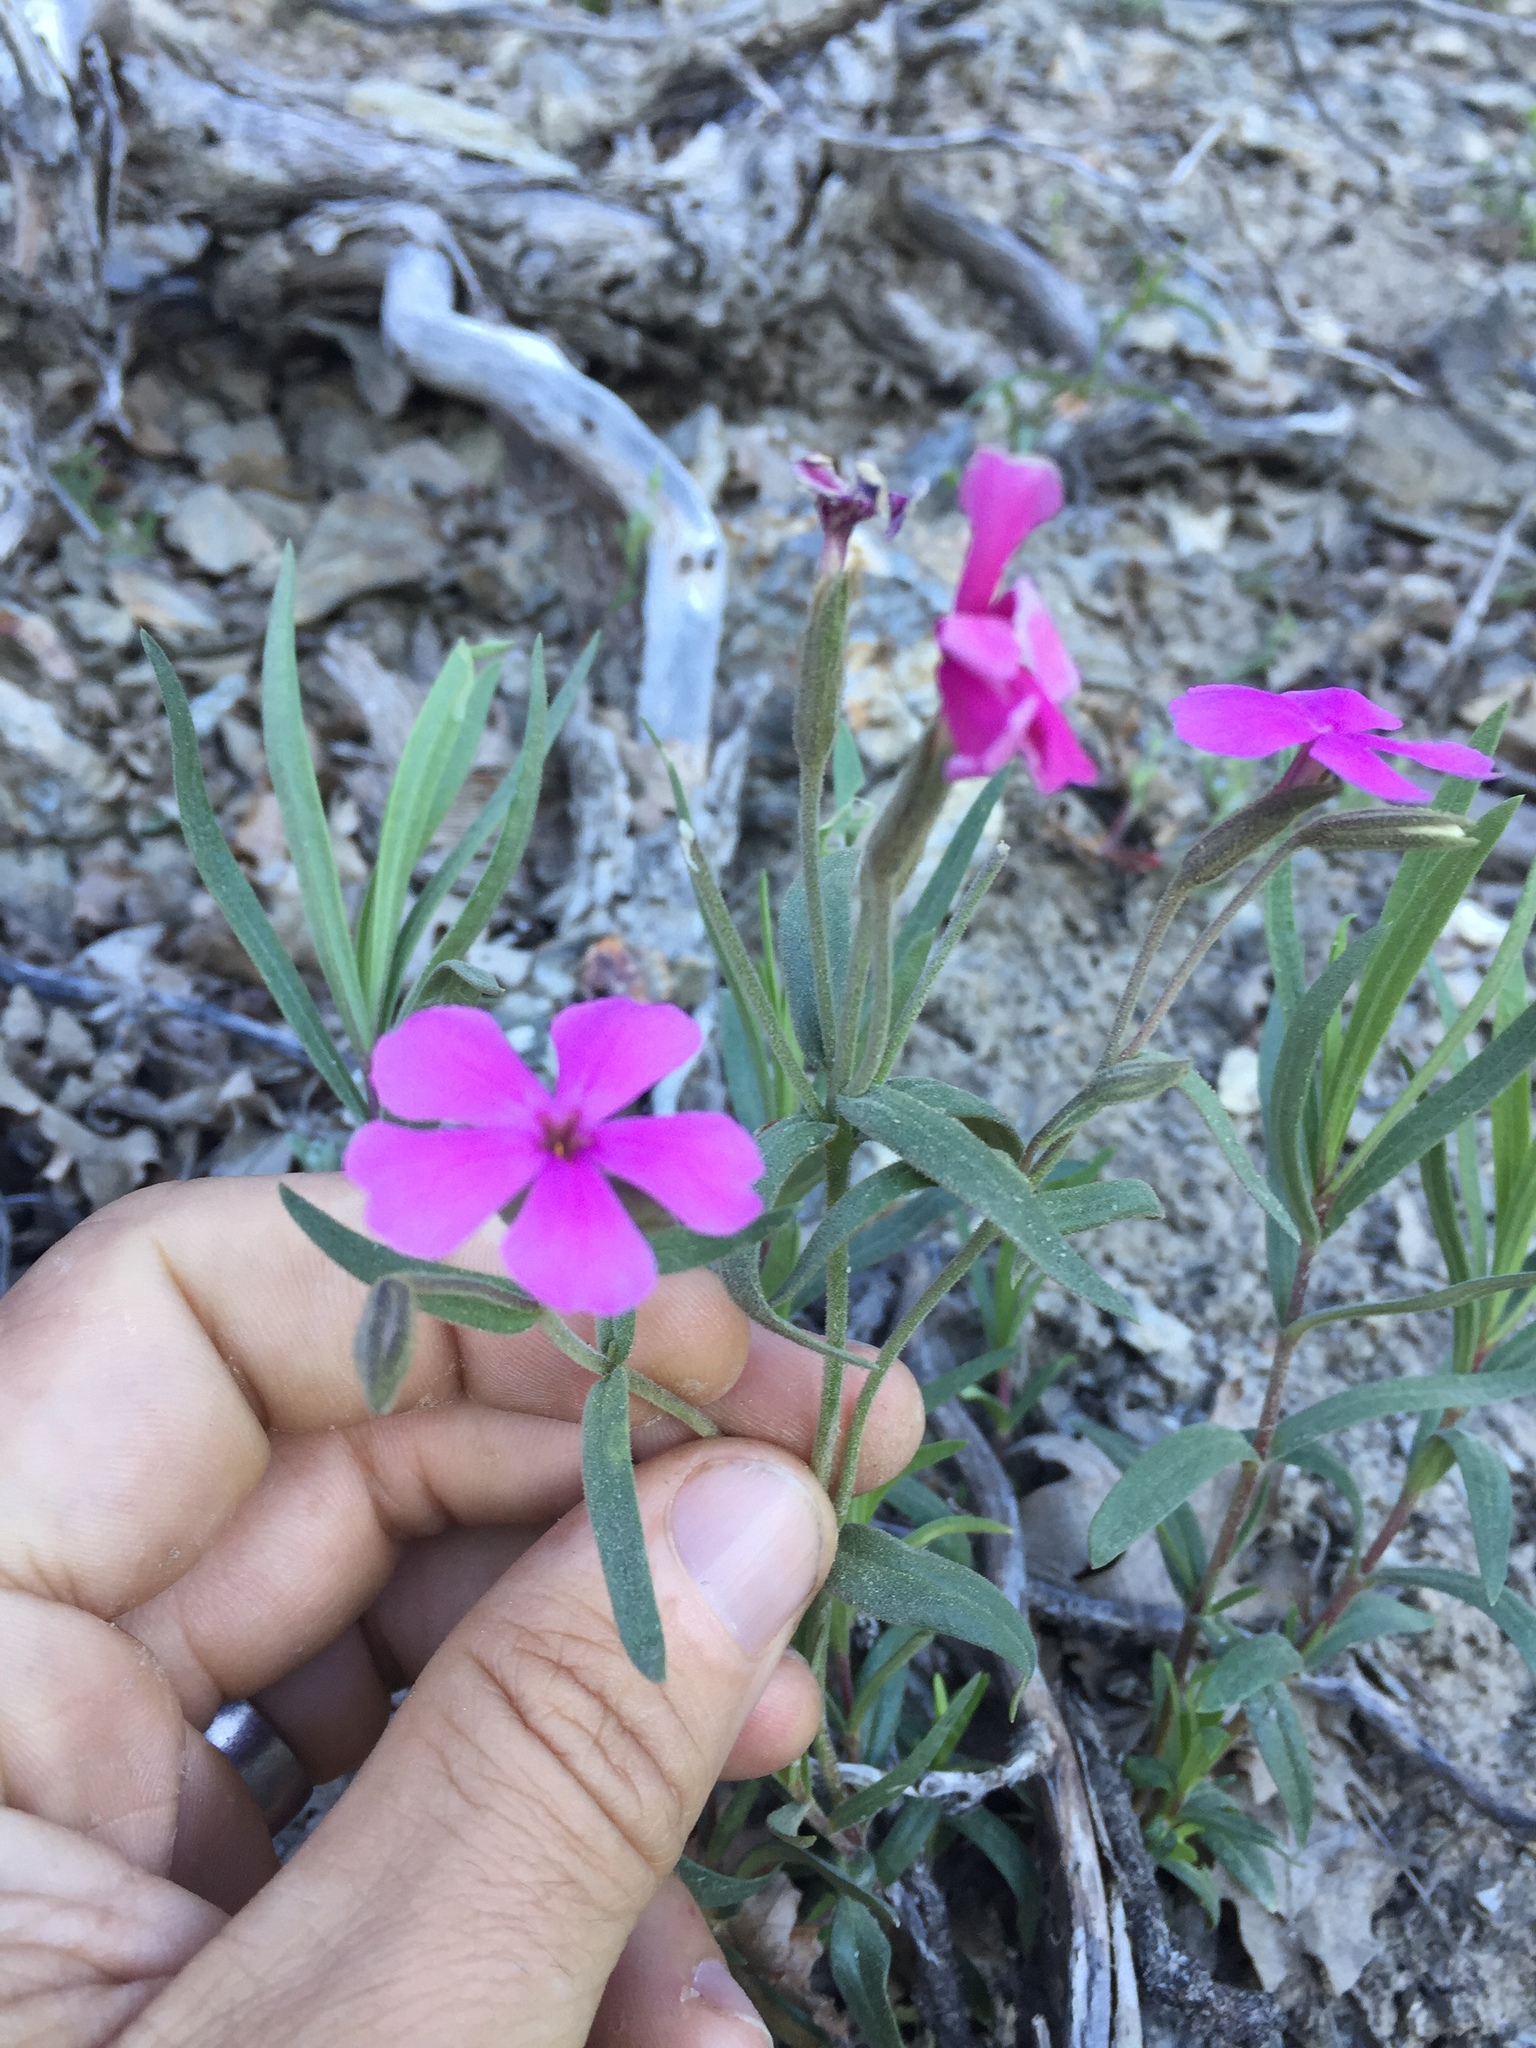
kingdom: Plantae
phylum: Tracheophyta
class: Magnoliopsida
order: Ericales
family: Polemoniaceae
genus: Phlox
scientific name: Phlox speciosa
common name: Bush phlox
